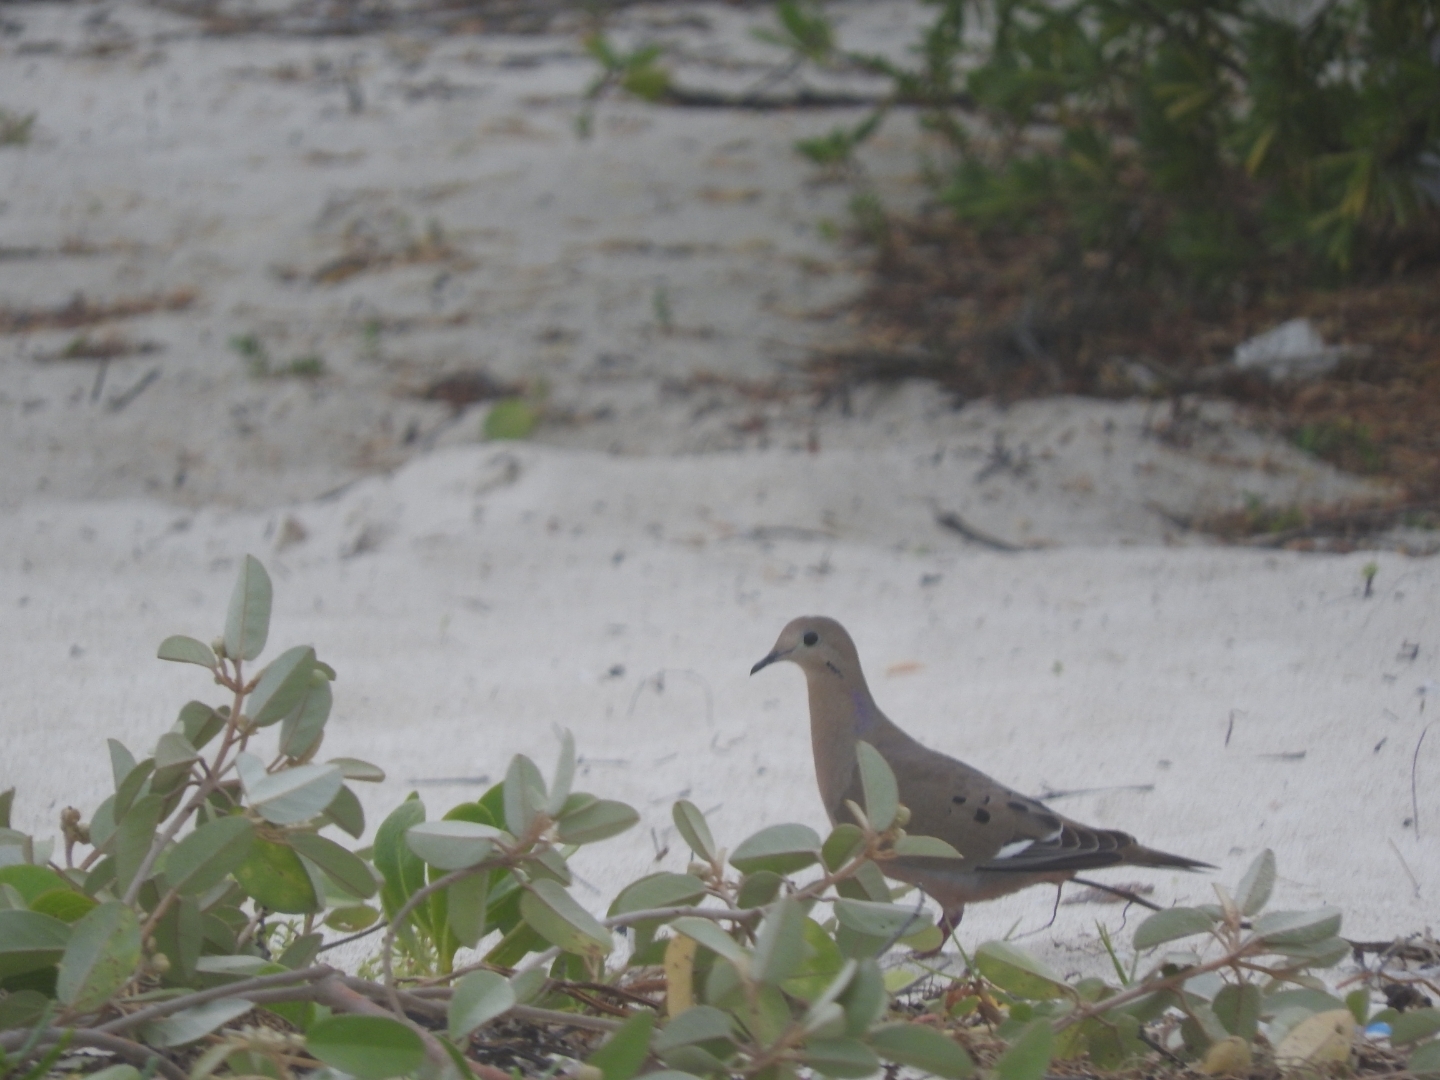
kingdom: Animalia
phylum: Chordata
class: Aves
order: Columbiformes
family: Columbidae
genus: Zenaida
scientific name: Zenaida aurita
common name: Zenaida dove
